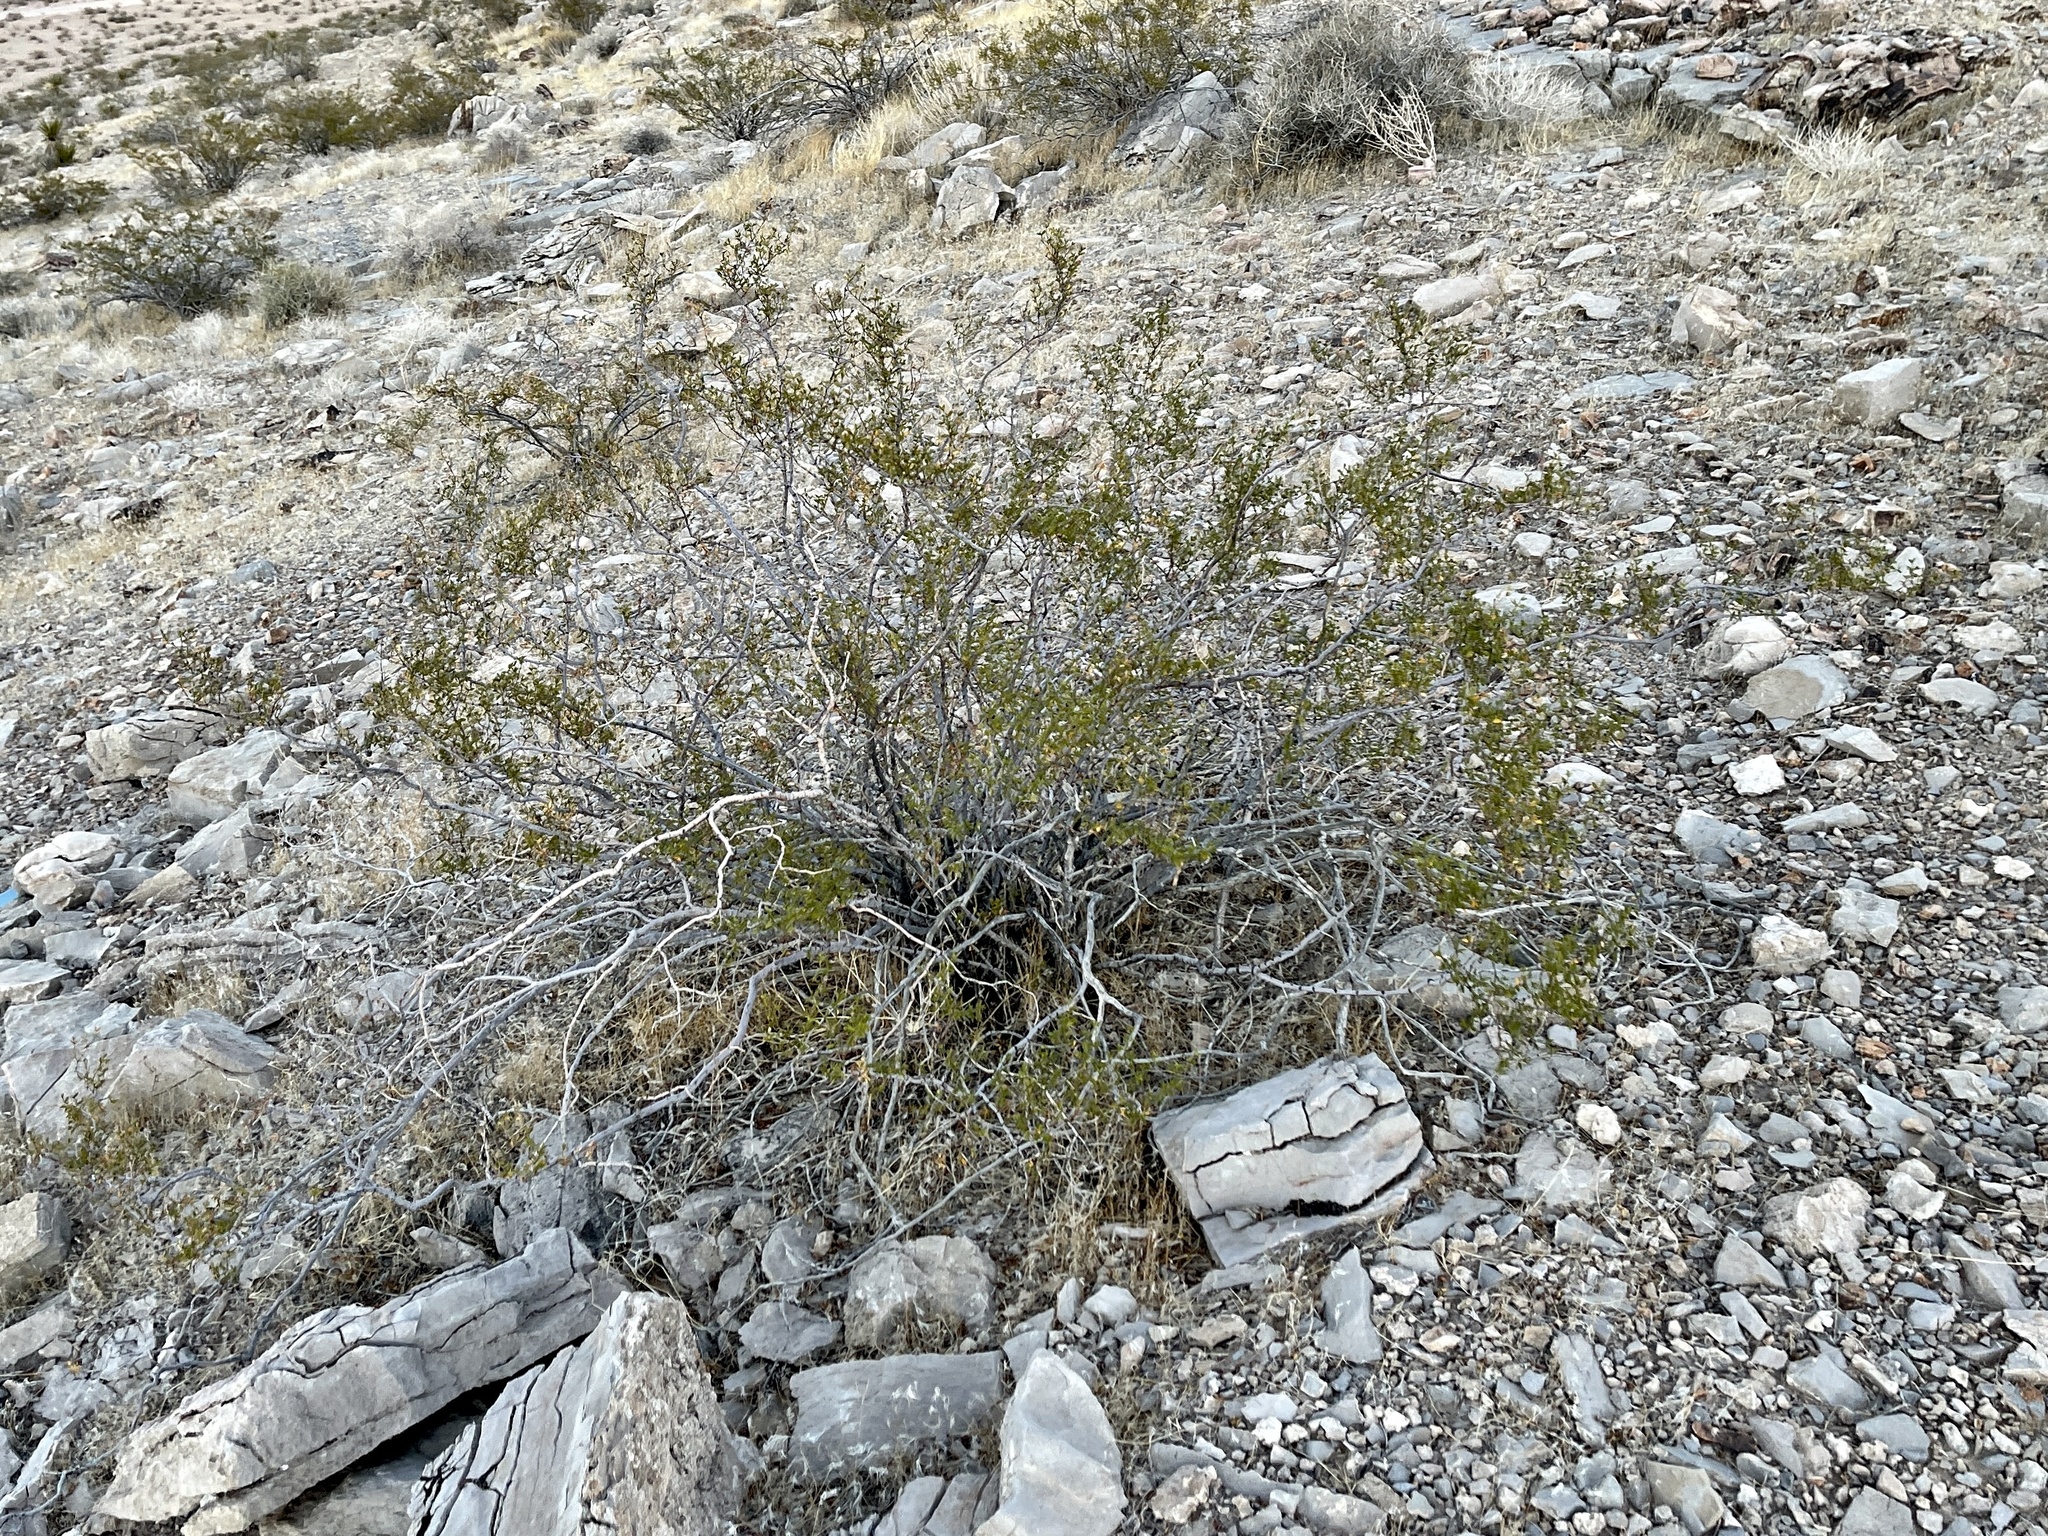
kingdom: Plantae
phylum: Tracheophyta
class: Magnoliopsida
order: Zygophyllales
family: Zygophyllaceae
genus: Larrea
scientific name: Larrea tridentata
